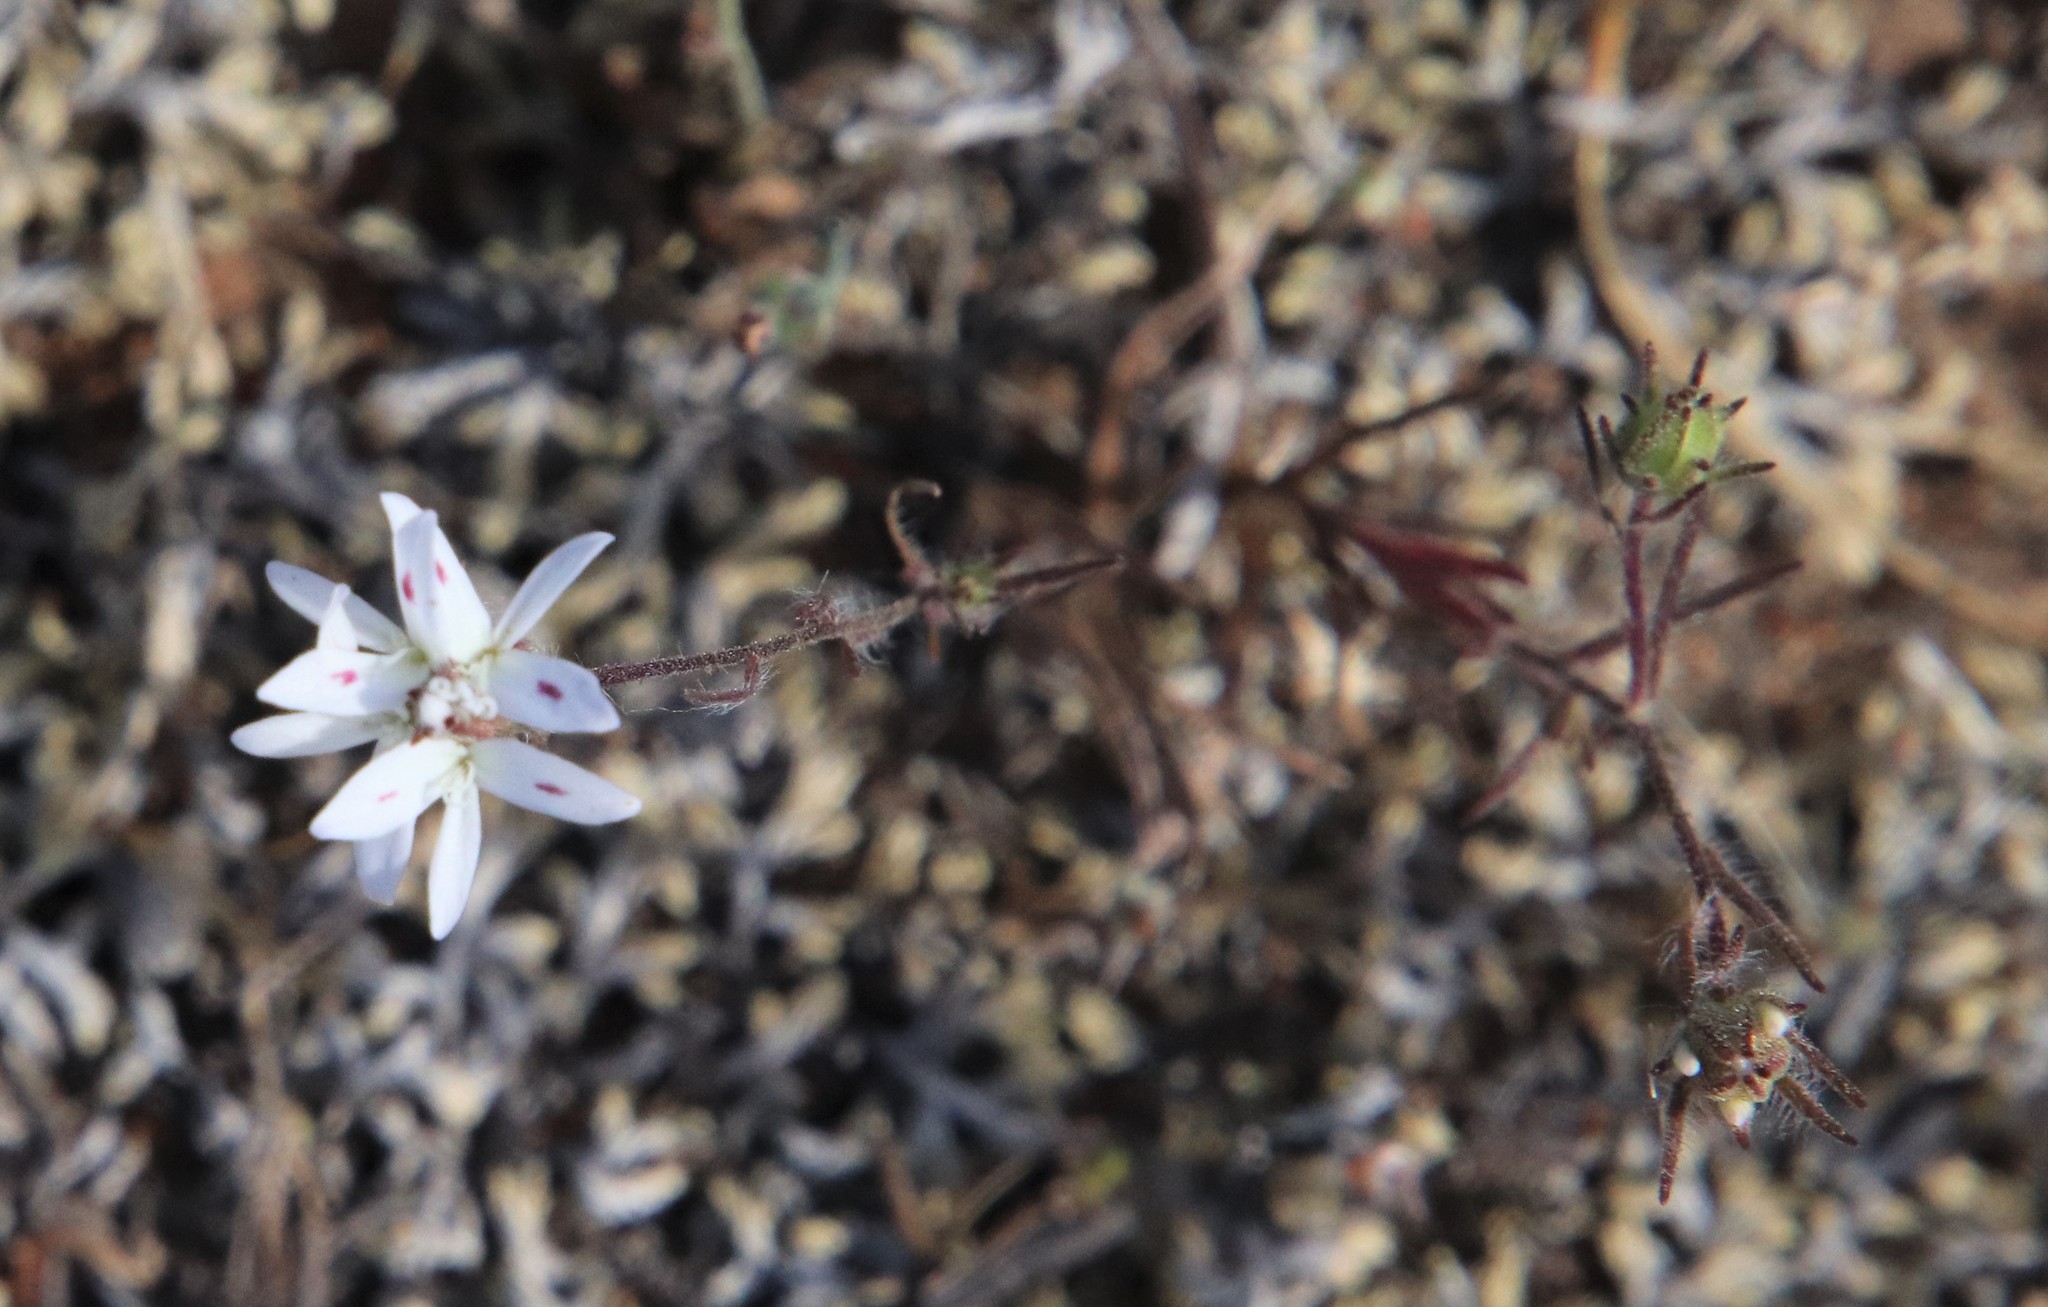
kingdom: Plantae
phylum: Tracheophyta
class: Magnoliopsida
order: Asterales
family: Asteraceae
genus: Osmadenia
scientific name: Osmadenia tenella
